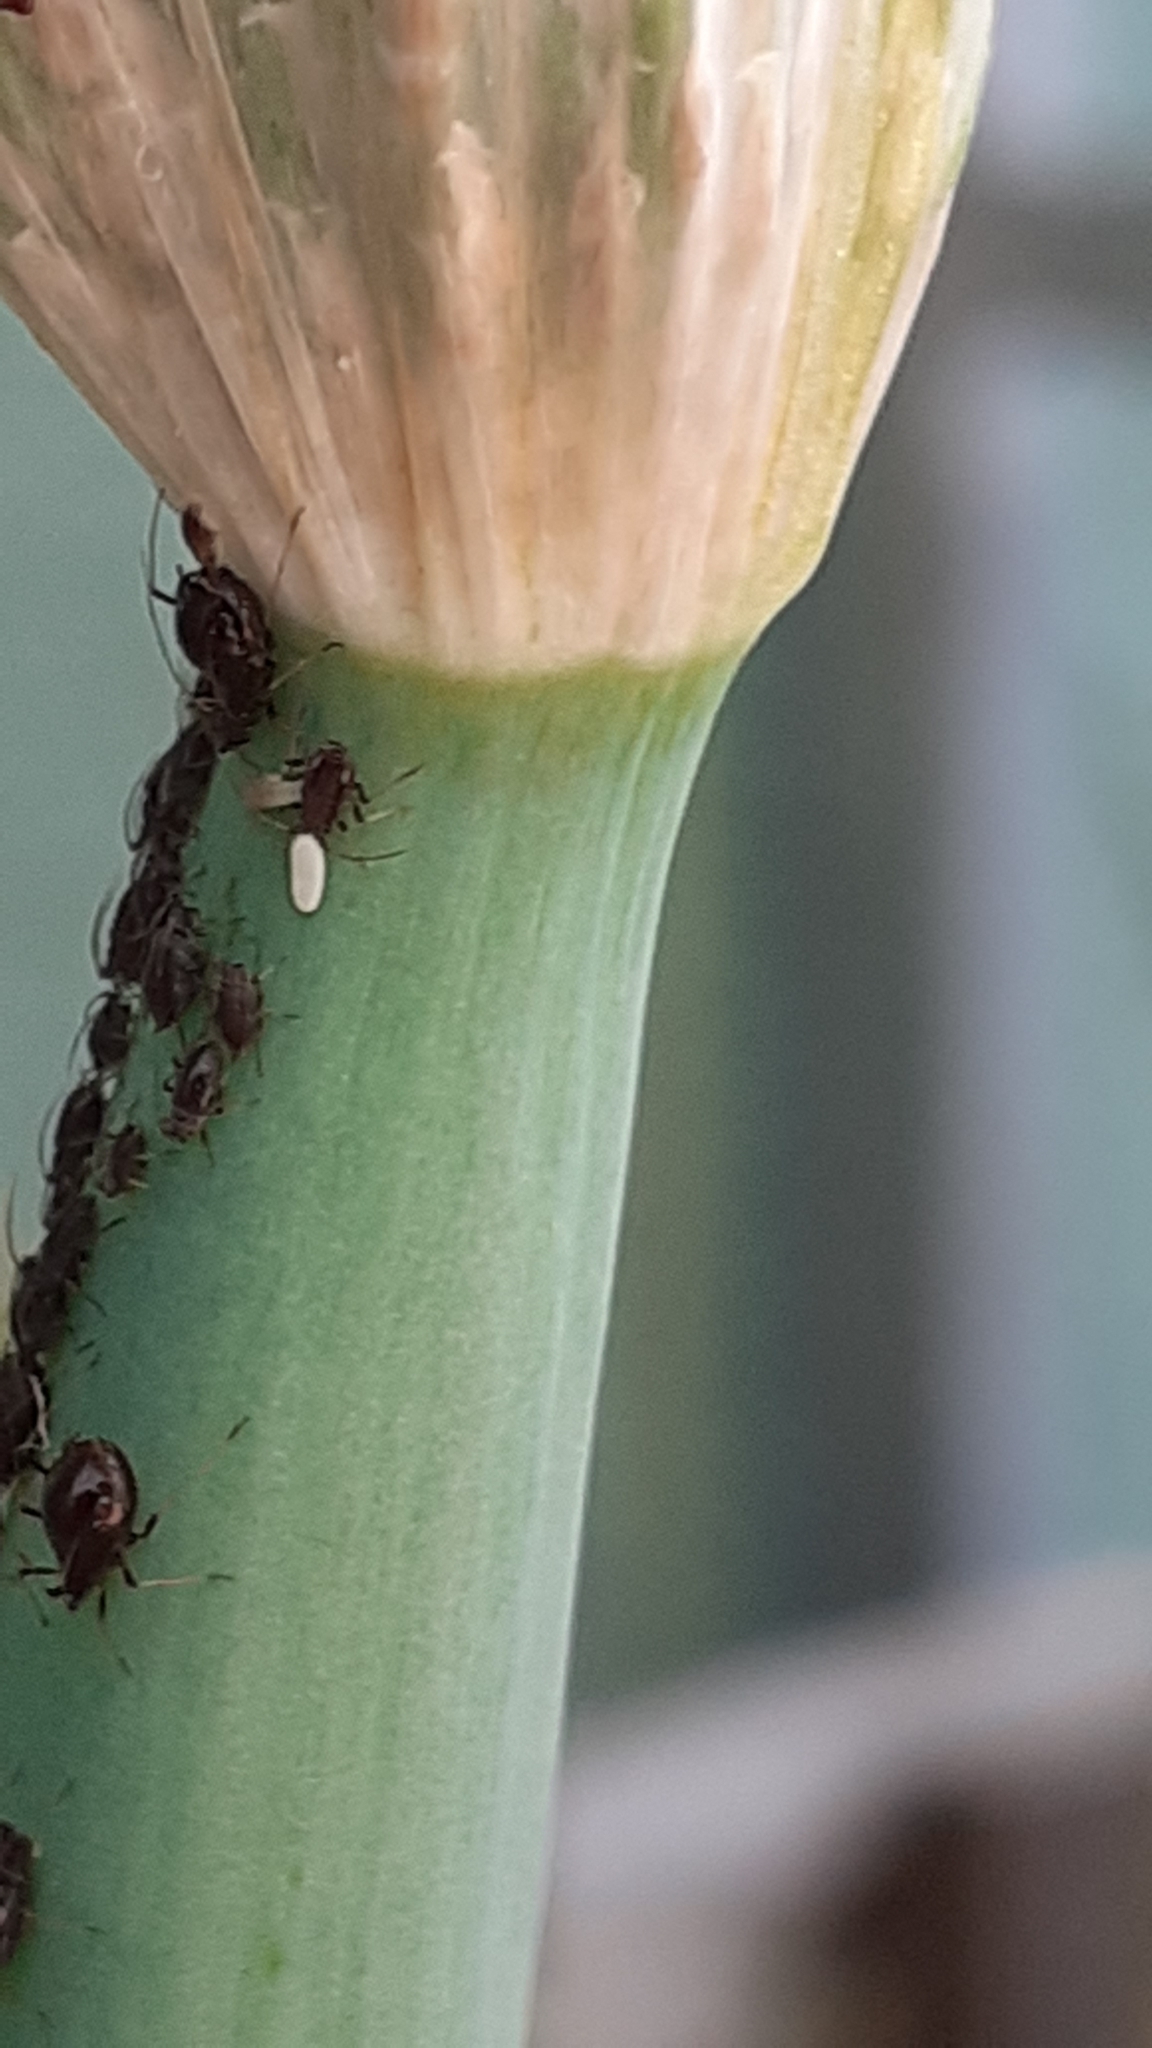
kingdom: Animalia
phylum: Arthropoda
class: Insecta
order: Hemiptera
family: Aphididae
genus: Neotoxoptera
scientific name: Neotoxoptera formosana
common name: Onion aphid
